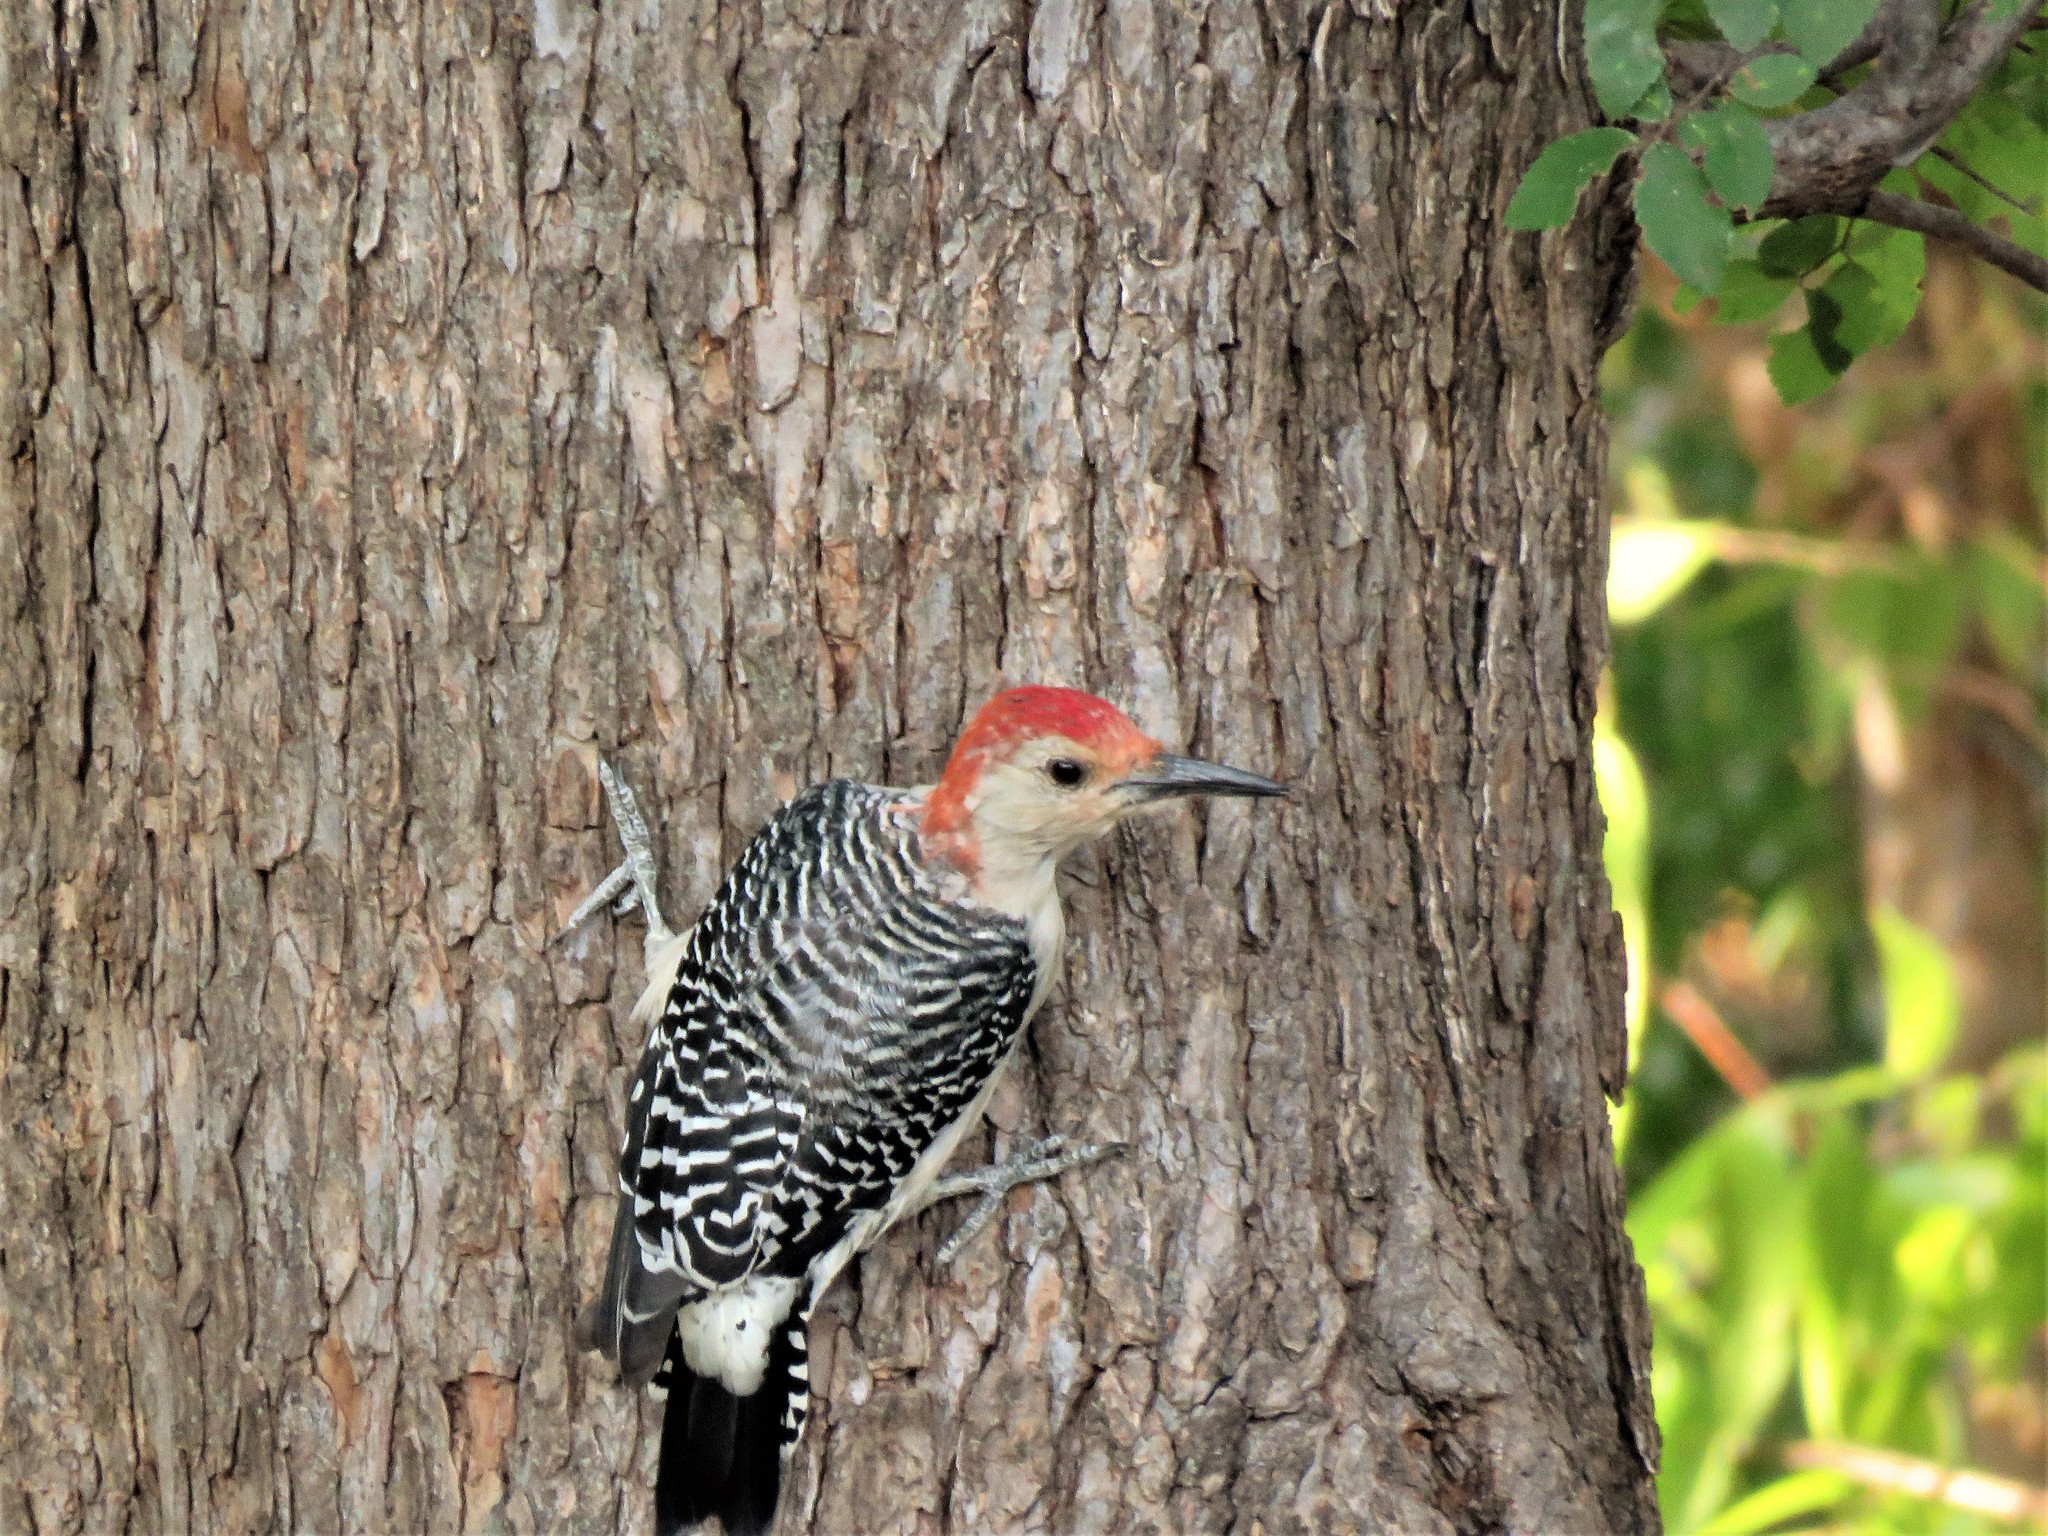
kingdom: Animalia
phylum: Chordata
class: Aves
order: Piciformes
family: Picidae
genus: Melanerpes
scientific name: Melanerpes carolinus
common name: Red-bellied woodpecker
